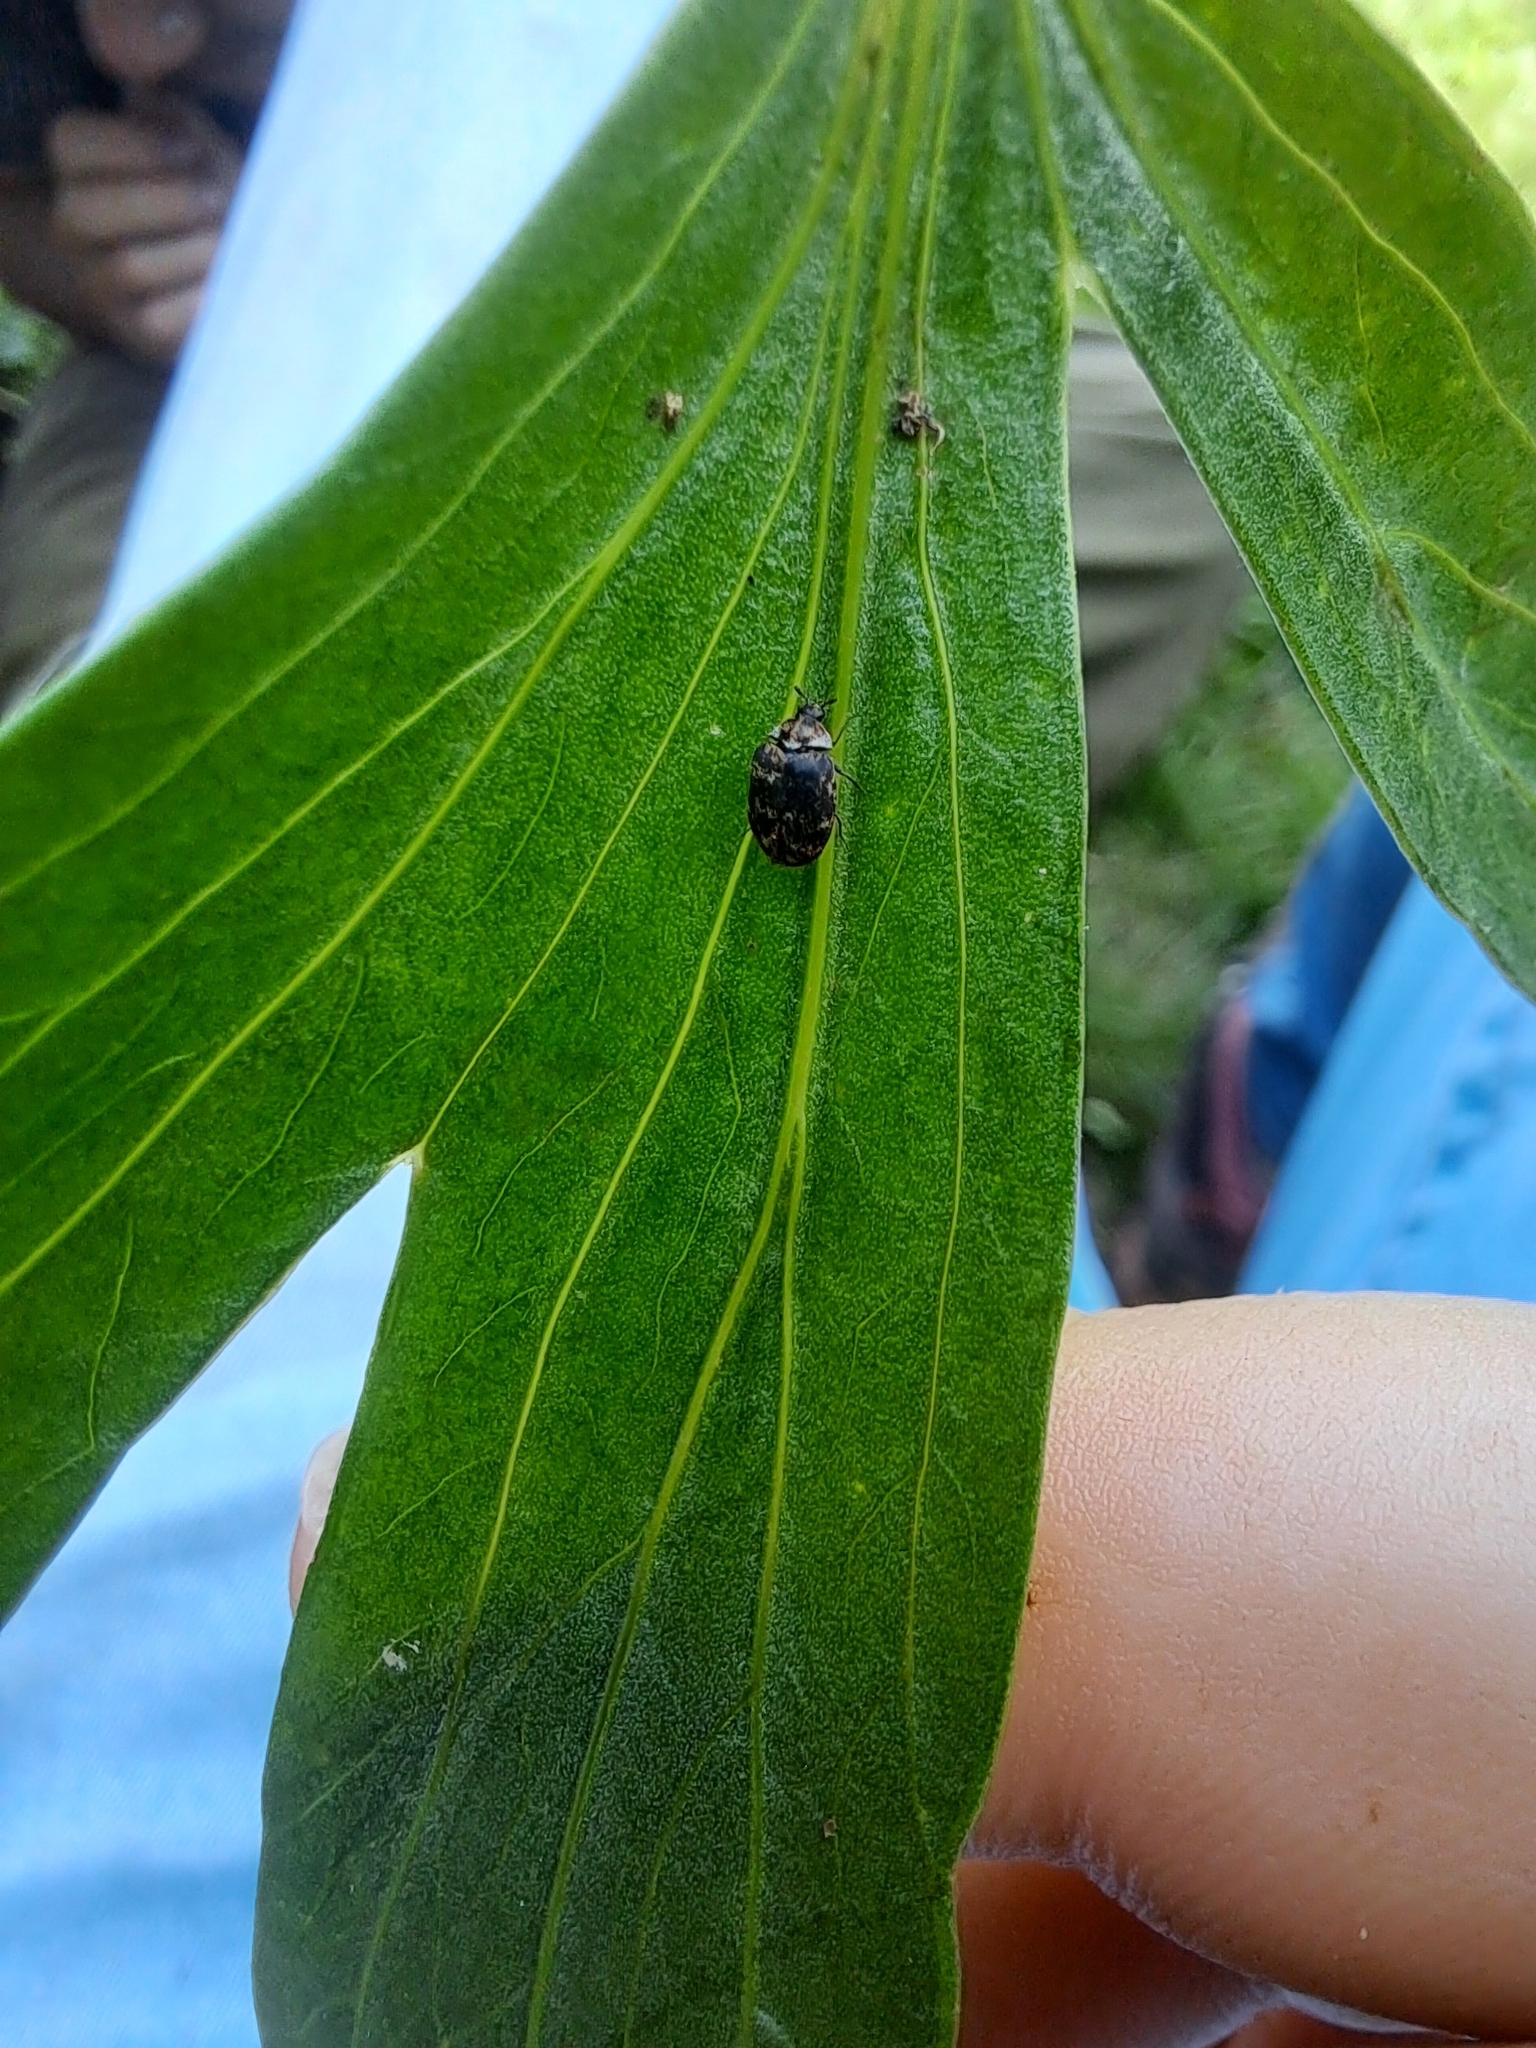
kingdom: Animalia
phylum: Arthropoda
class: Insecta
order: Coleoptera
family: Dermestidae
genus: Anthrenus
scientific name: Anthrenus museorum
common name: Museum beetle
